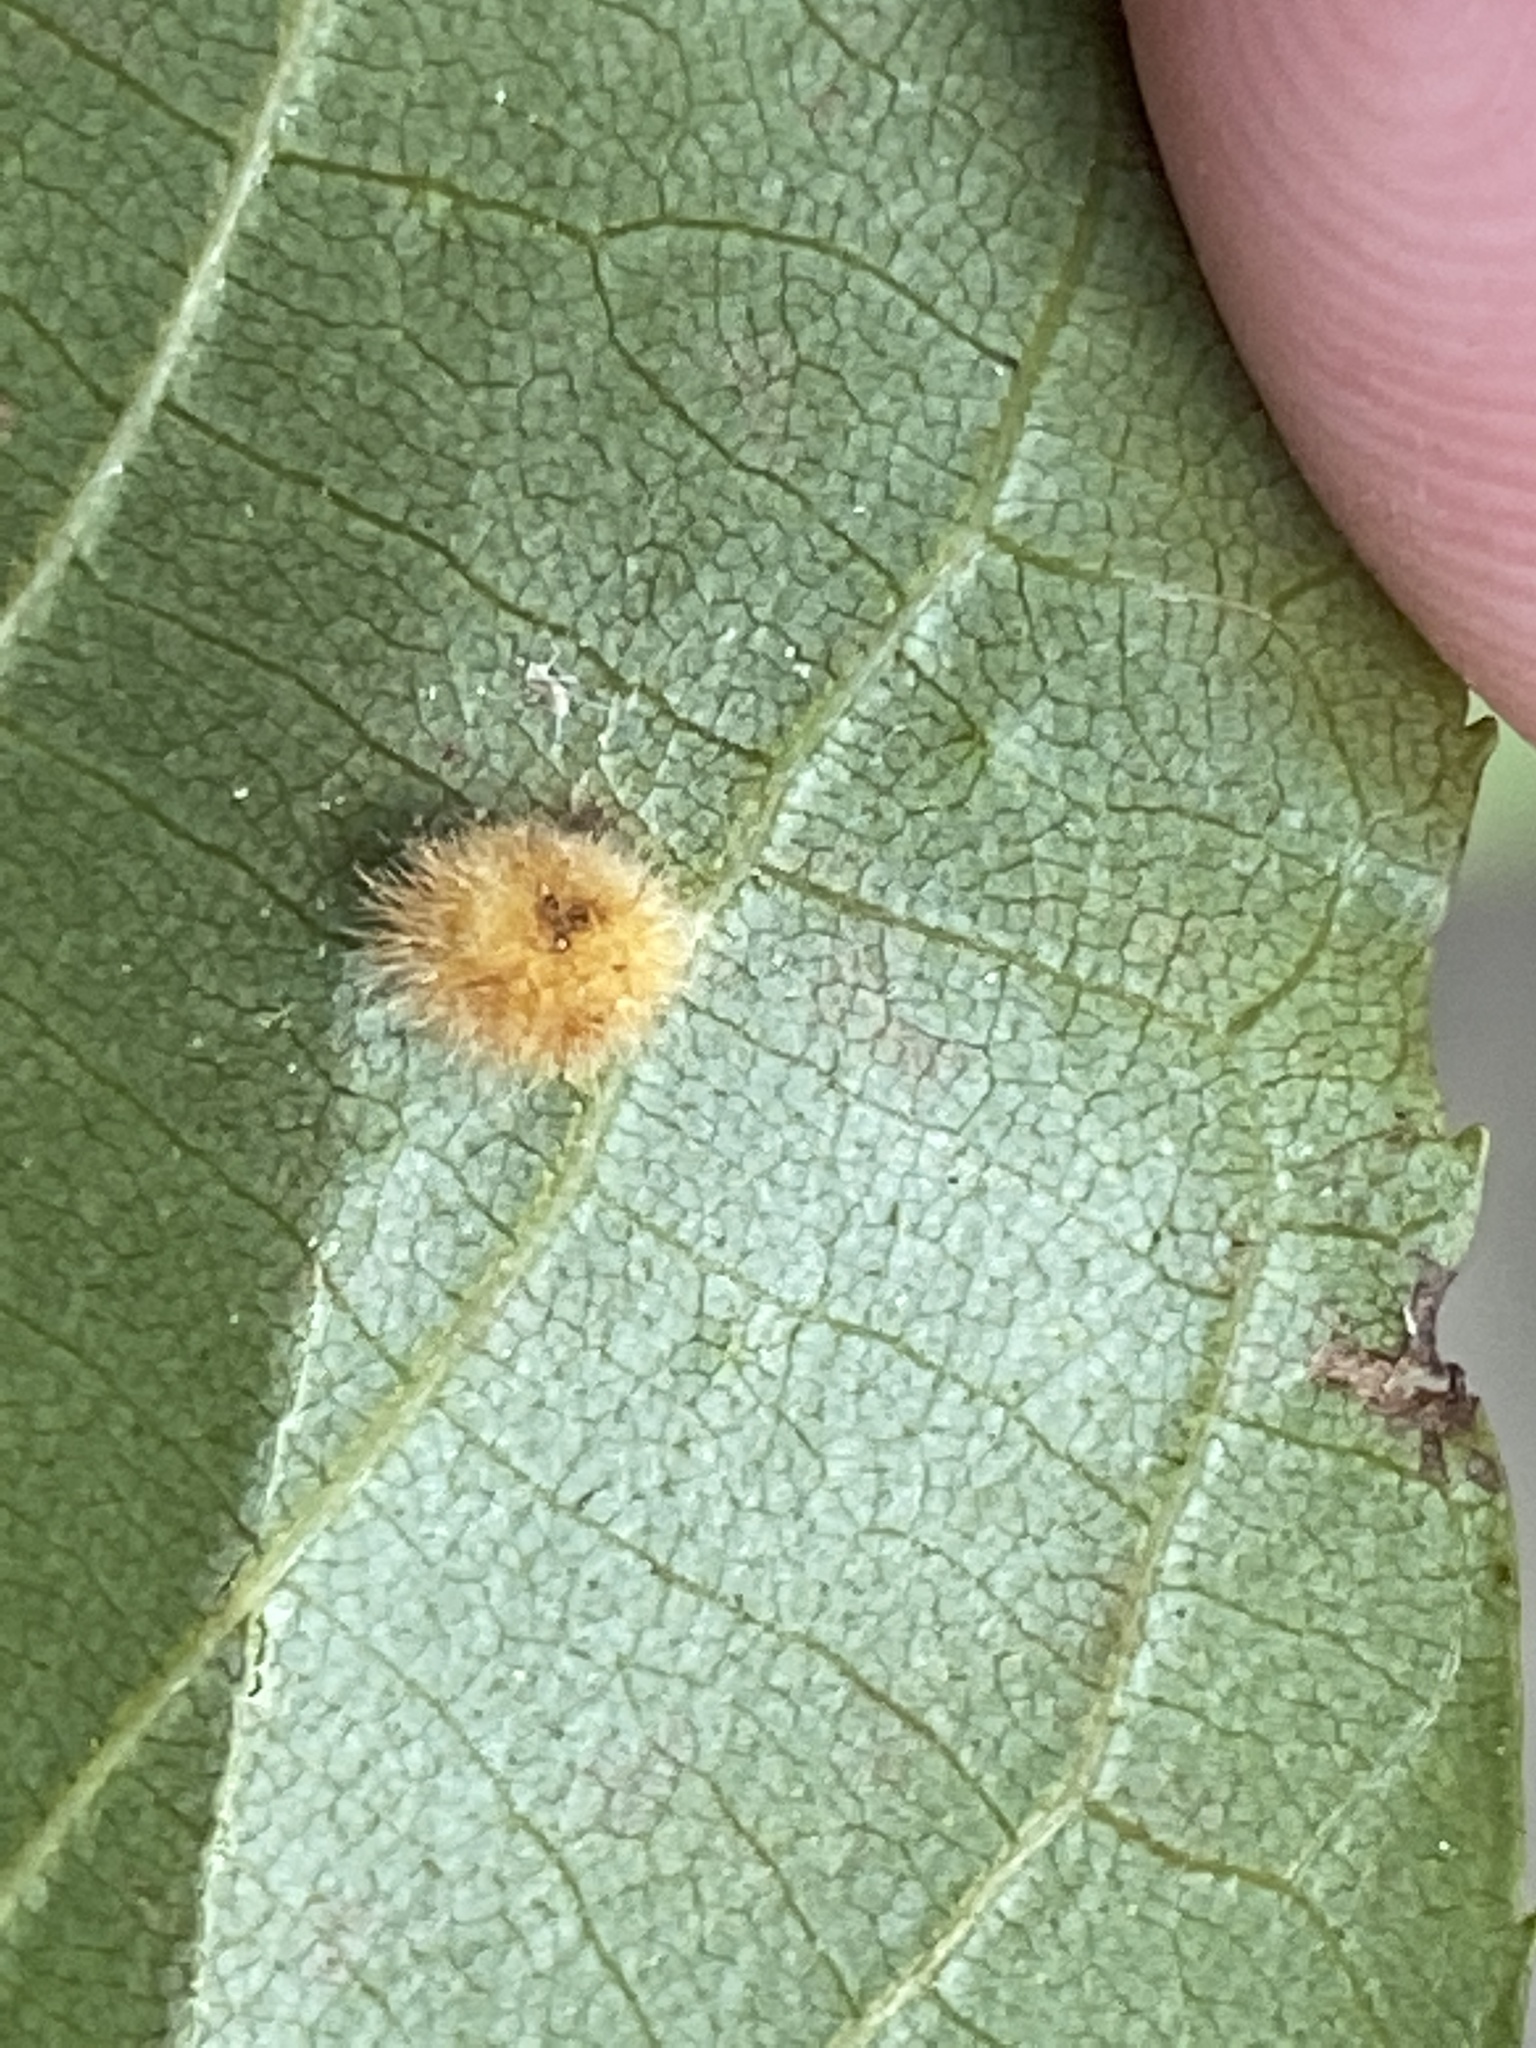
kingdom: Animalia
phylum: Arthropoda
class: Insecta
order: Diptera
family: Cecidomyiidae
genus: Caryomyia
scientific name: Caryomyia purpurea
